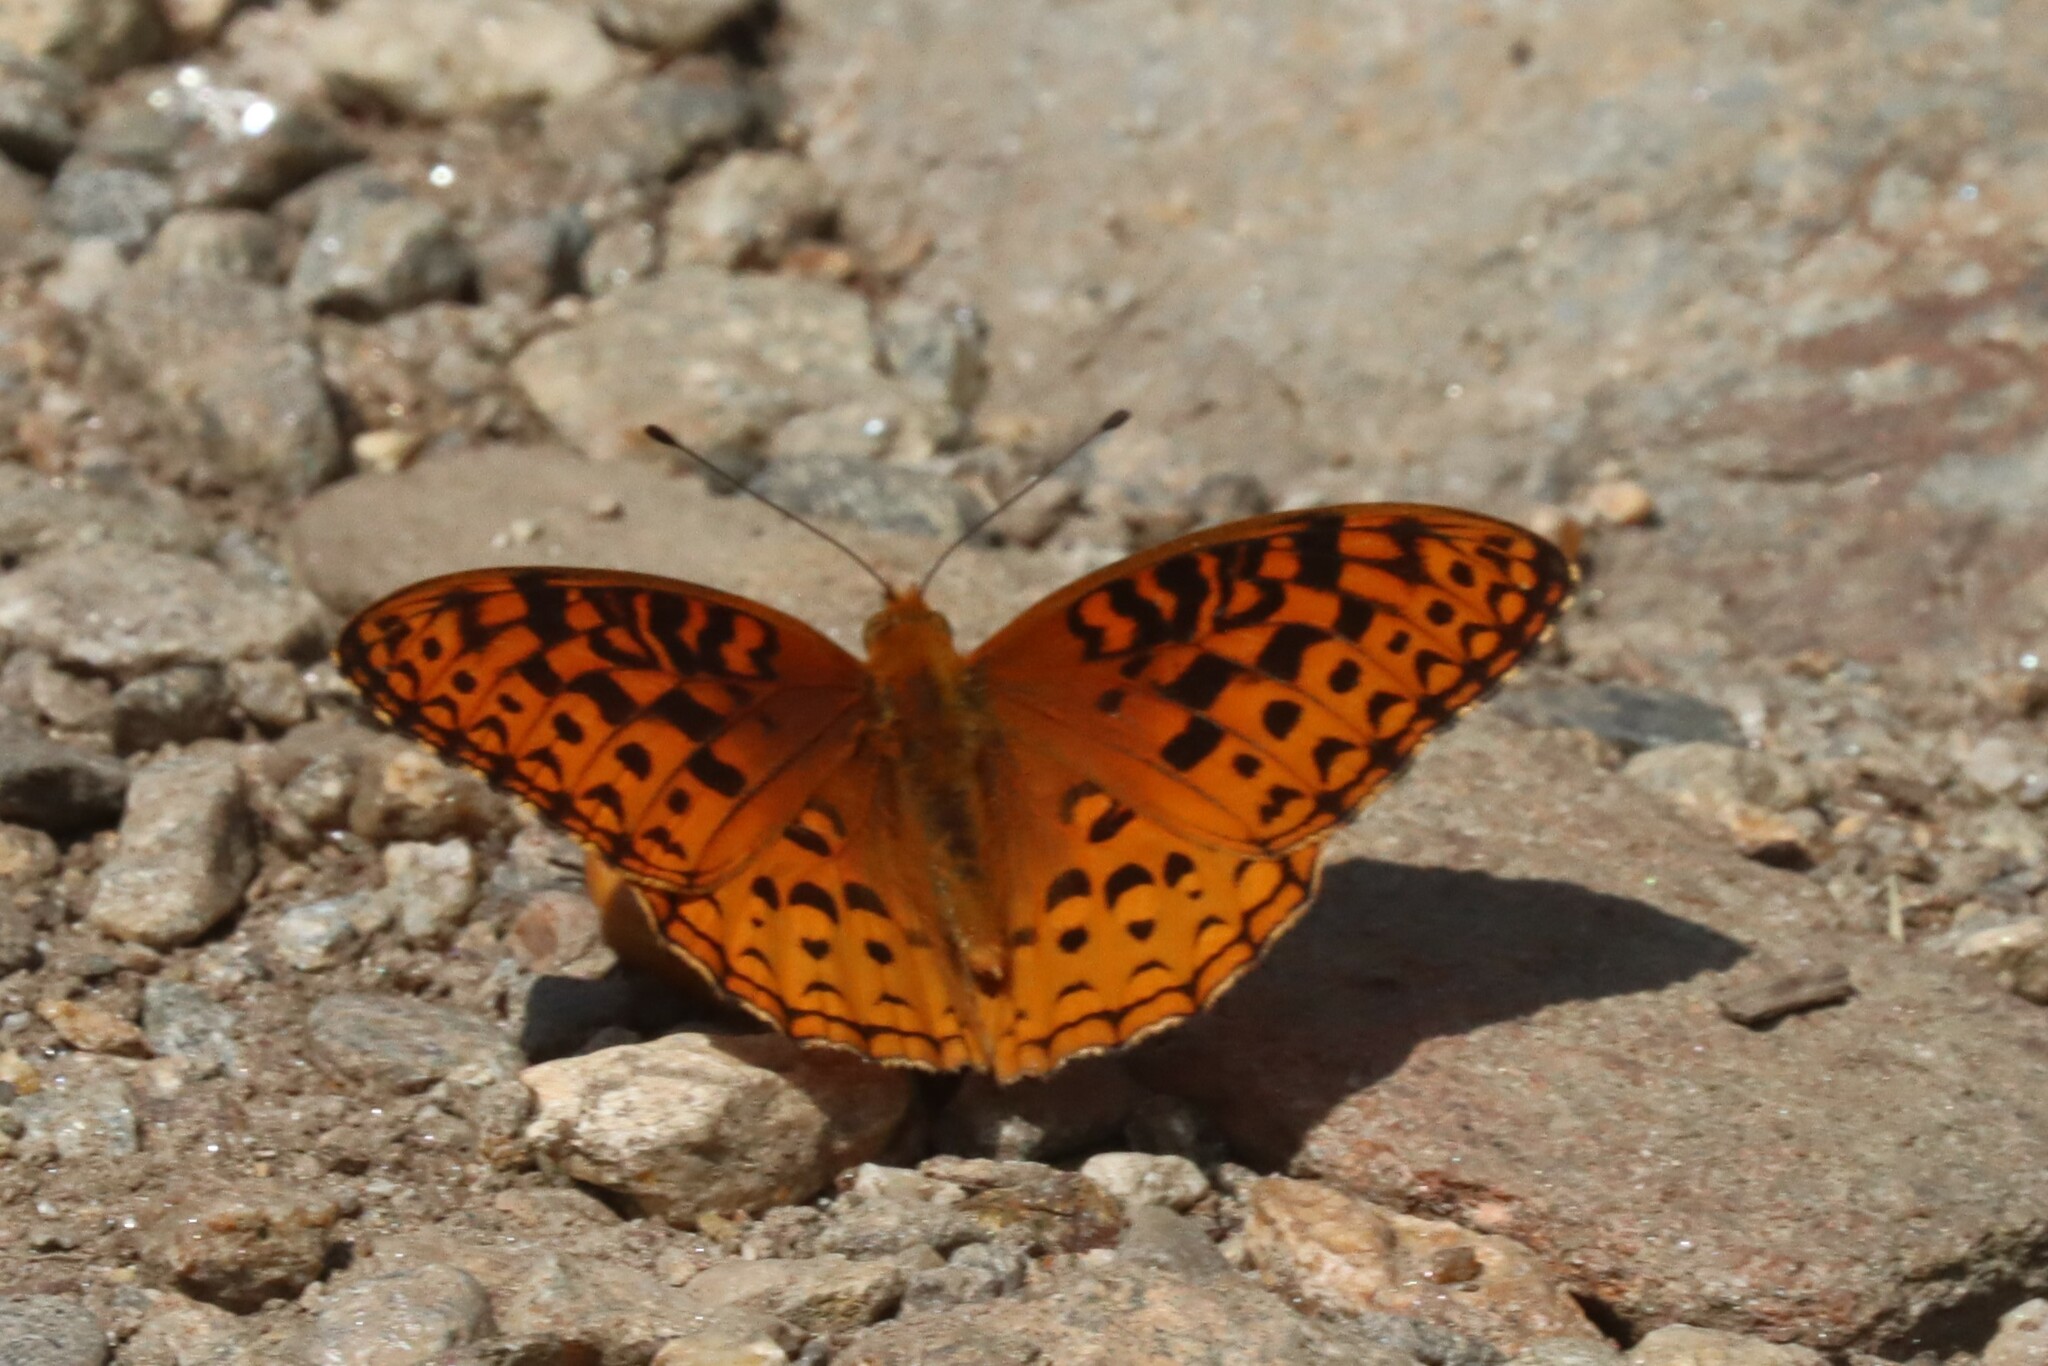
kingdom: Animalia
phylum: Arthropoda
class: Insecta
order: Lepidoptera
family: Nymphalidae
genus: Speyeria
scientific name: Speyeria aphrodite
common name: Aphrodite friitllary
